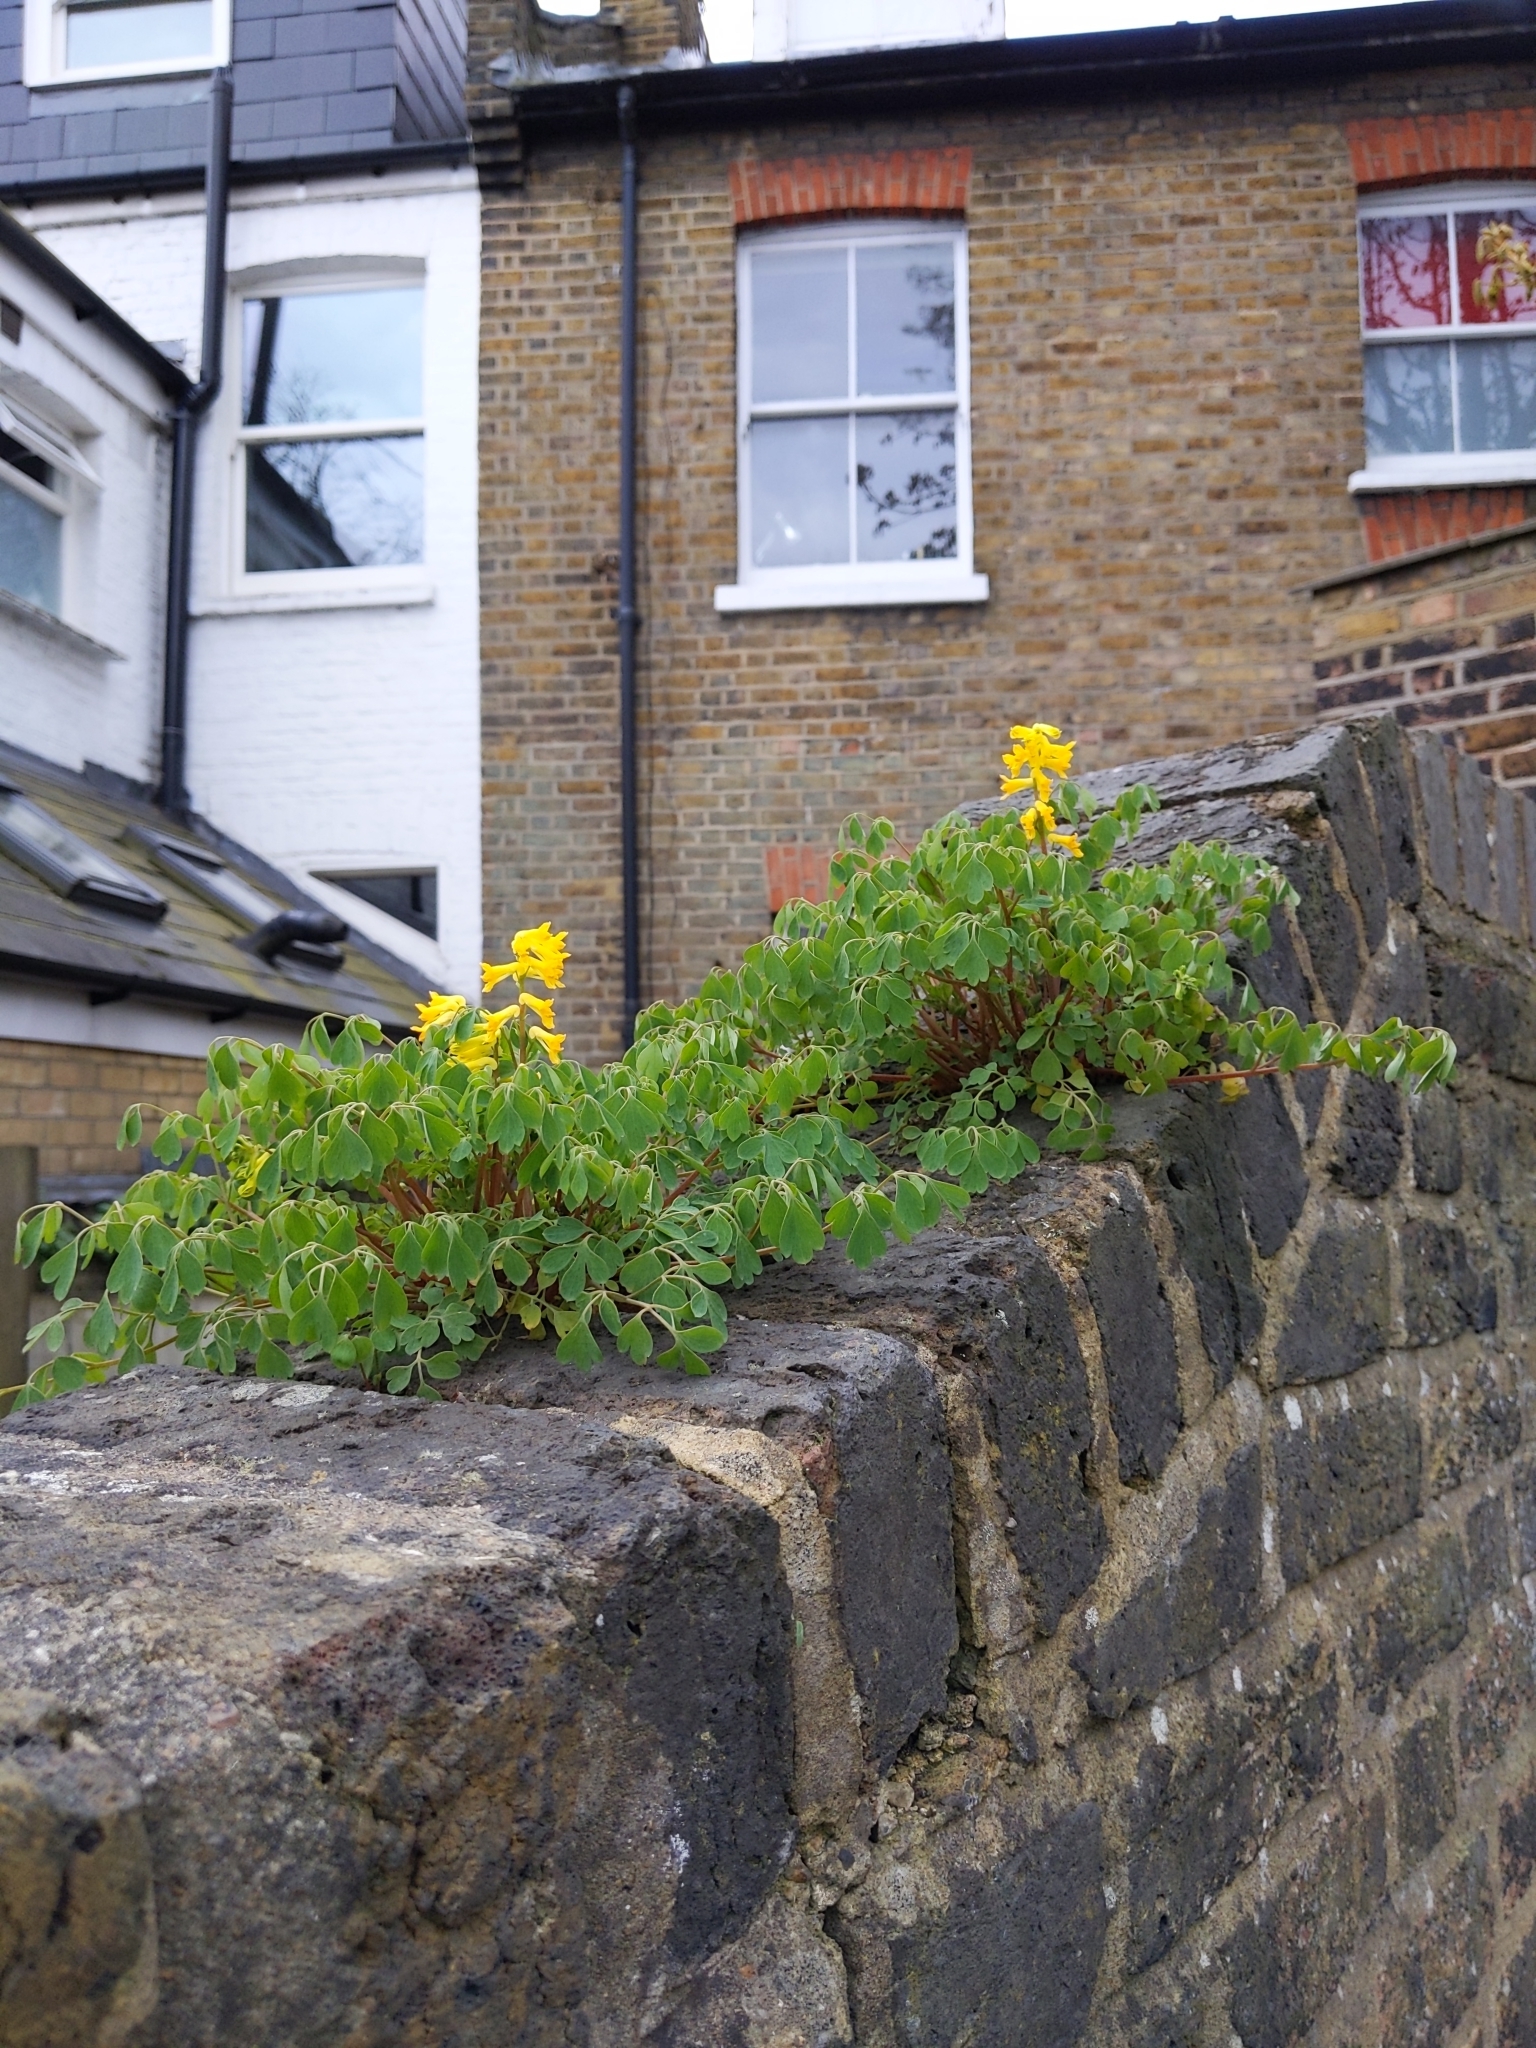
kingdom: Plantae
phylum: Tracheophyta
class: Magnoliopsida
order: Ranunculales
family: Papaveraceae
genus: Pseudofumaria
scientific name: Pseudofumaria lutea
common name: Yellow corydalis
